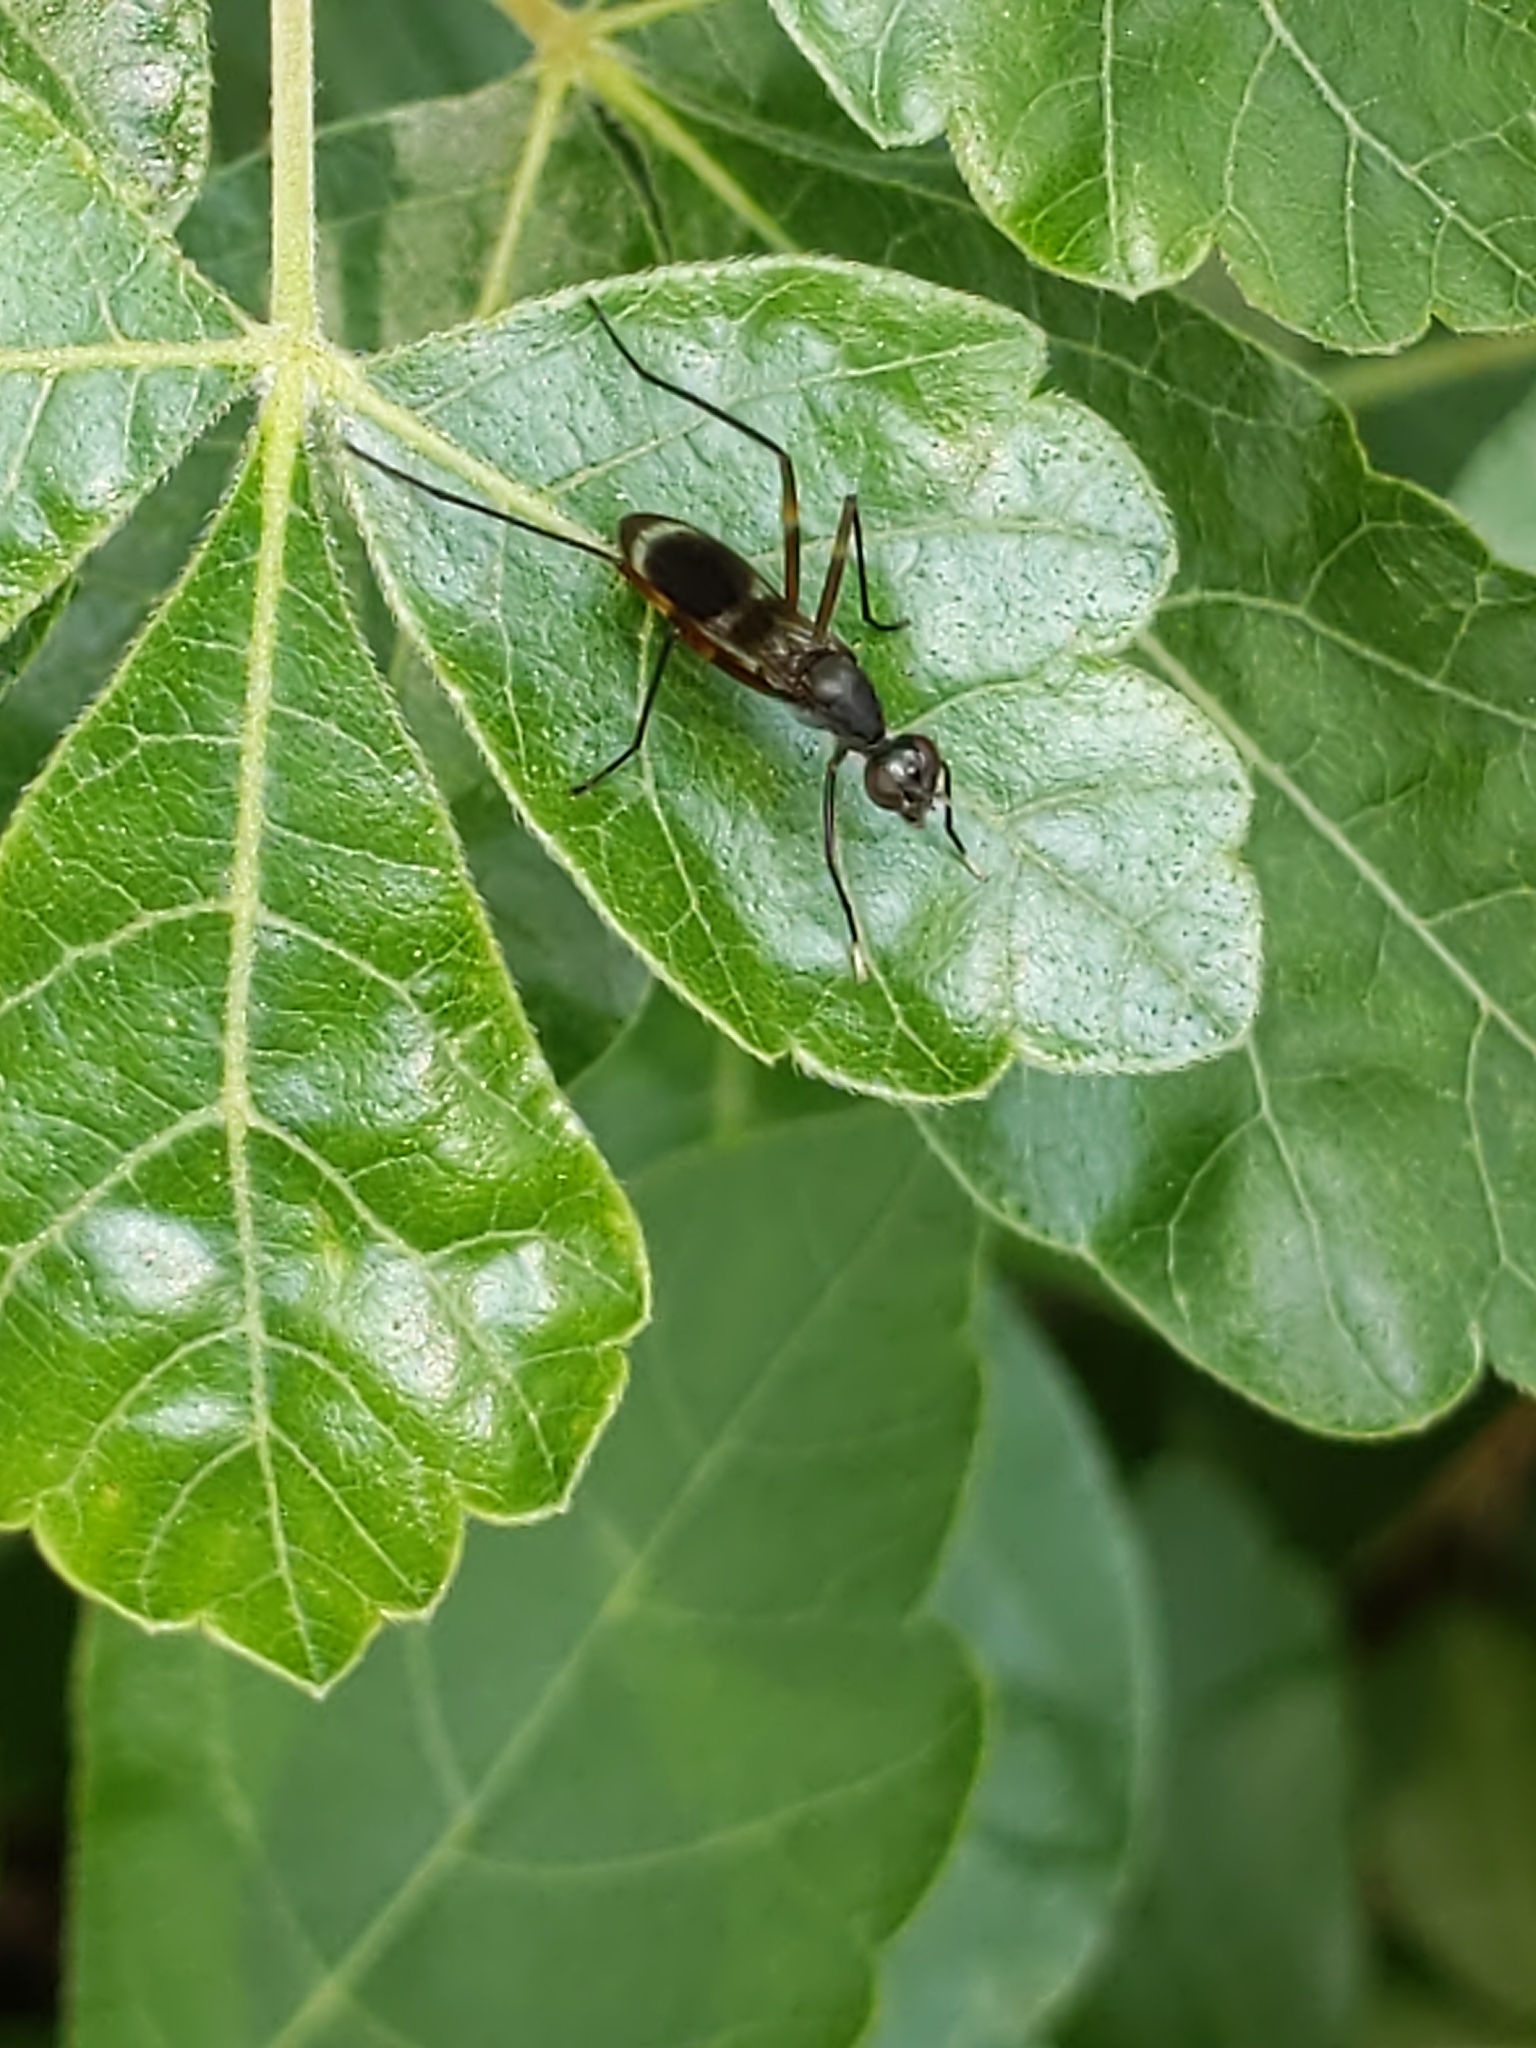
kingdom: Animalia
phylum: Arthropoda
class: Insecta
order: Diptera
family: Micropezidae
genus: Taeniaptera
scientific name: Taeniaptera trivittata
